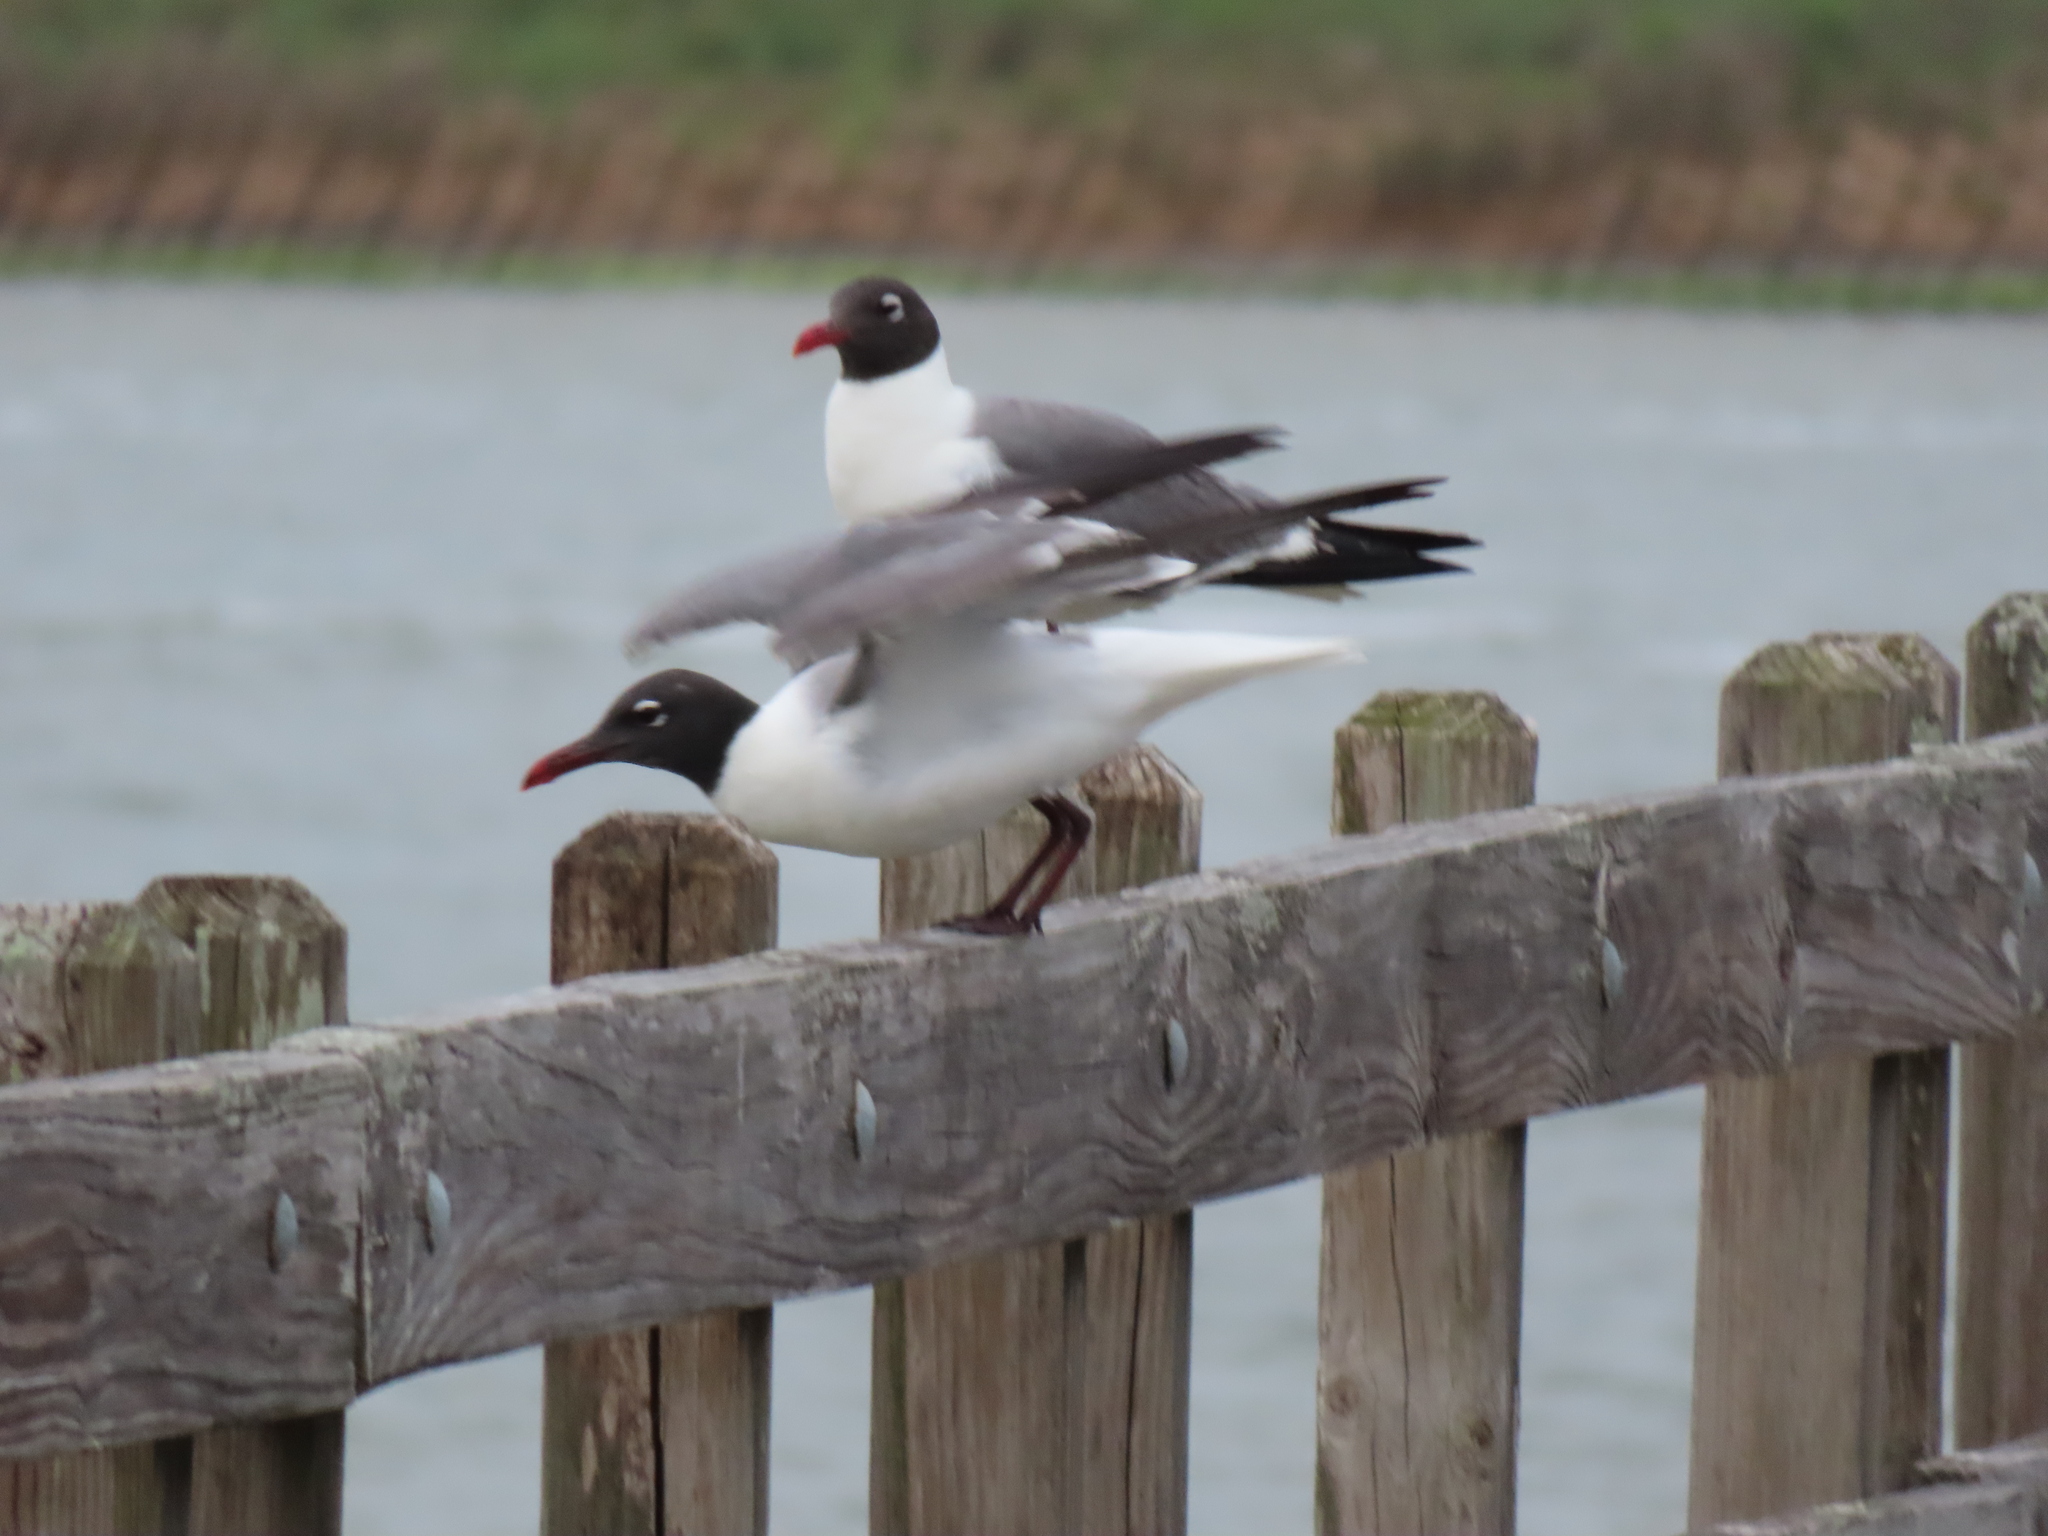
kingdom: Animalia
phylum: Chordata
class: Aves
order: Charadriiformes
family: Laridae
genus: Leucophaeus
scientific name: Leucophaeus atricilla
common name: Laughing gull
